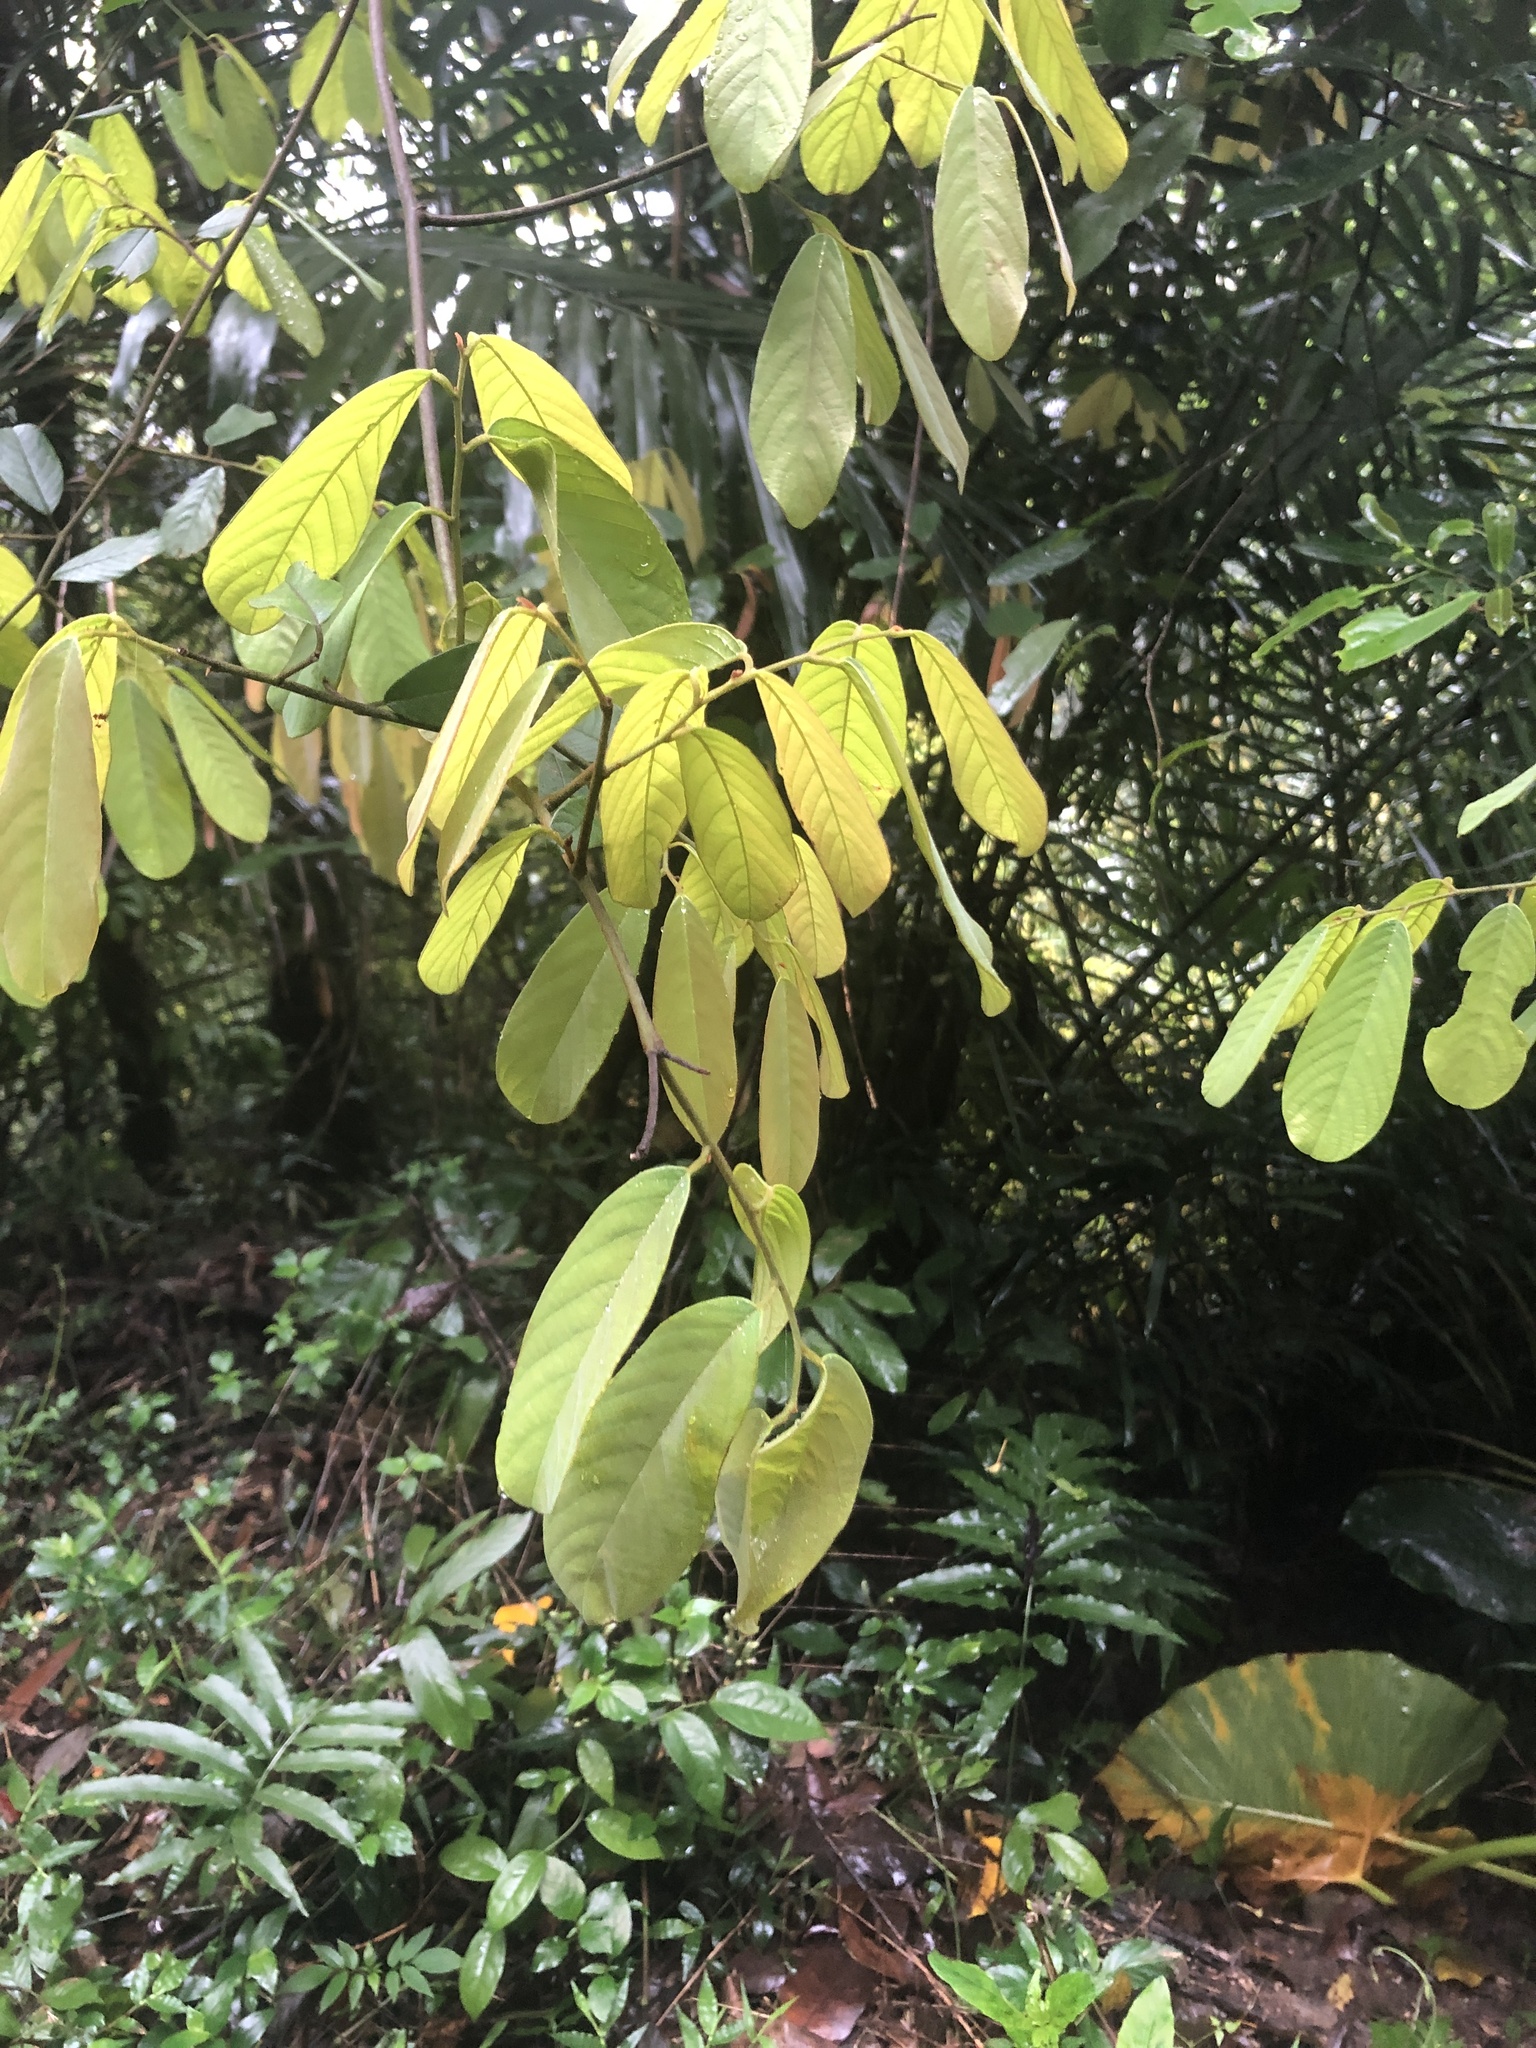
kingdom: Plantae
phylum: Tracheophyta
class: Magnoliopsida
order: Magnoliales
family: Annonaceae
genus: Fissistigma
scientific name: Fissistigma oldhamii
